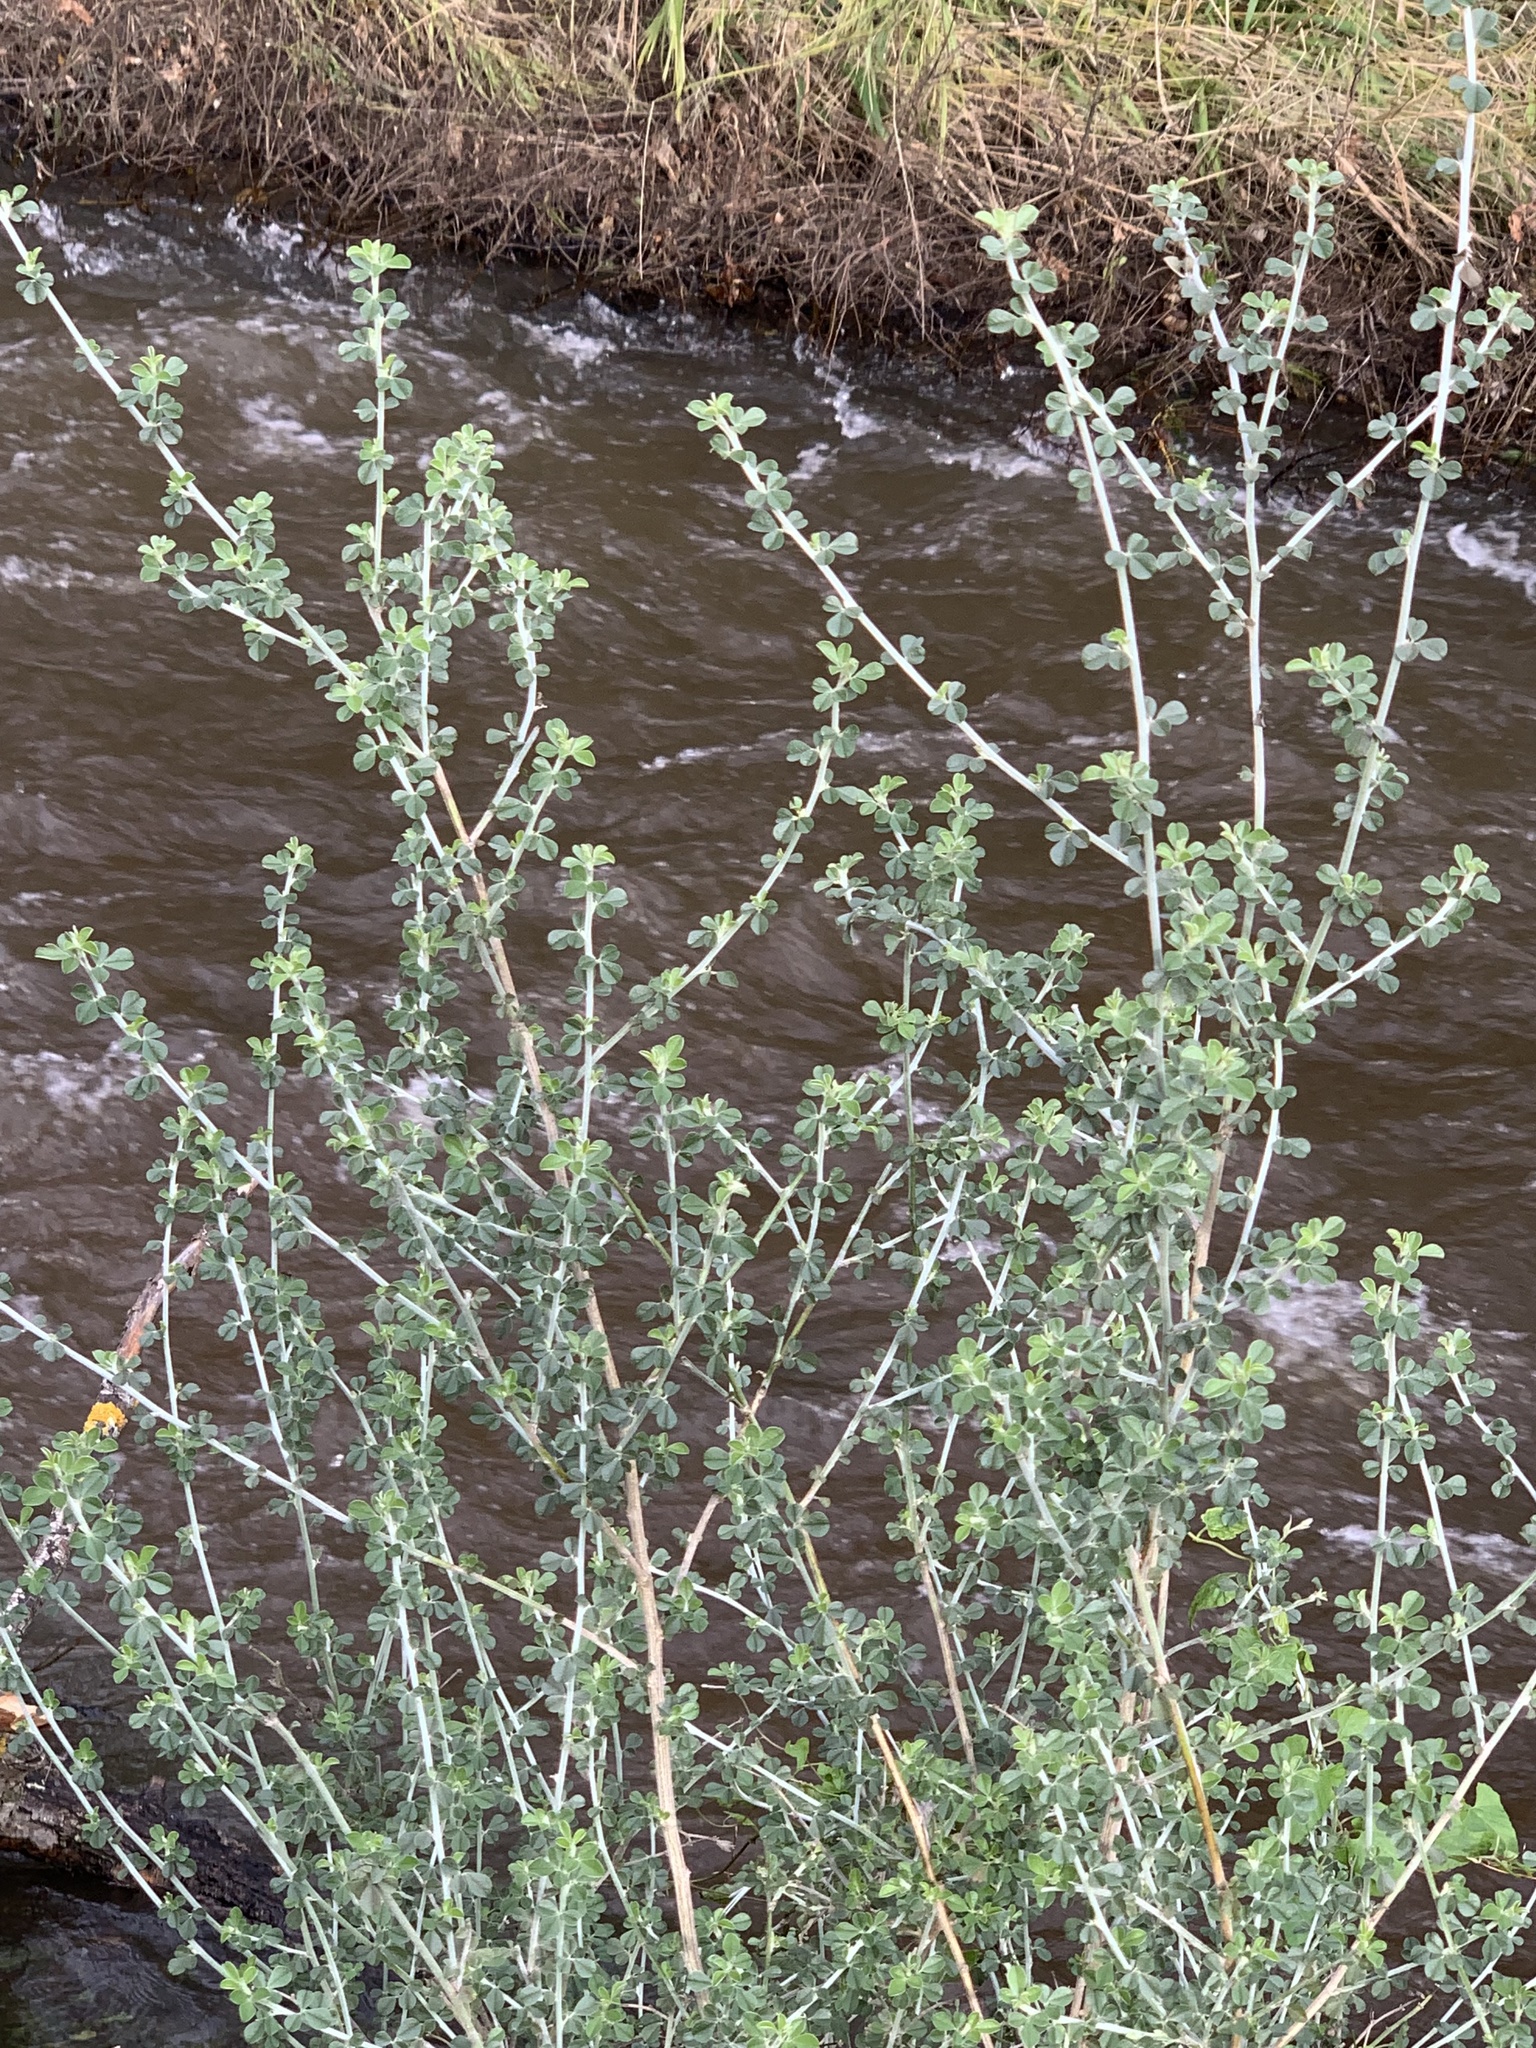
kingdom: Plantae
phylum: Tracheophyta
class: Magnoliopsida
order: Fabales
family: Fabaceae
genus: Psoralea
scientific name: Psoralea hirta
